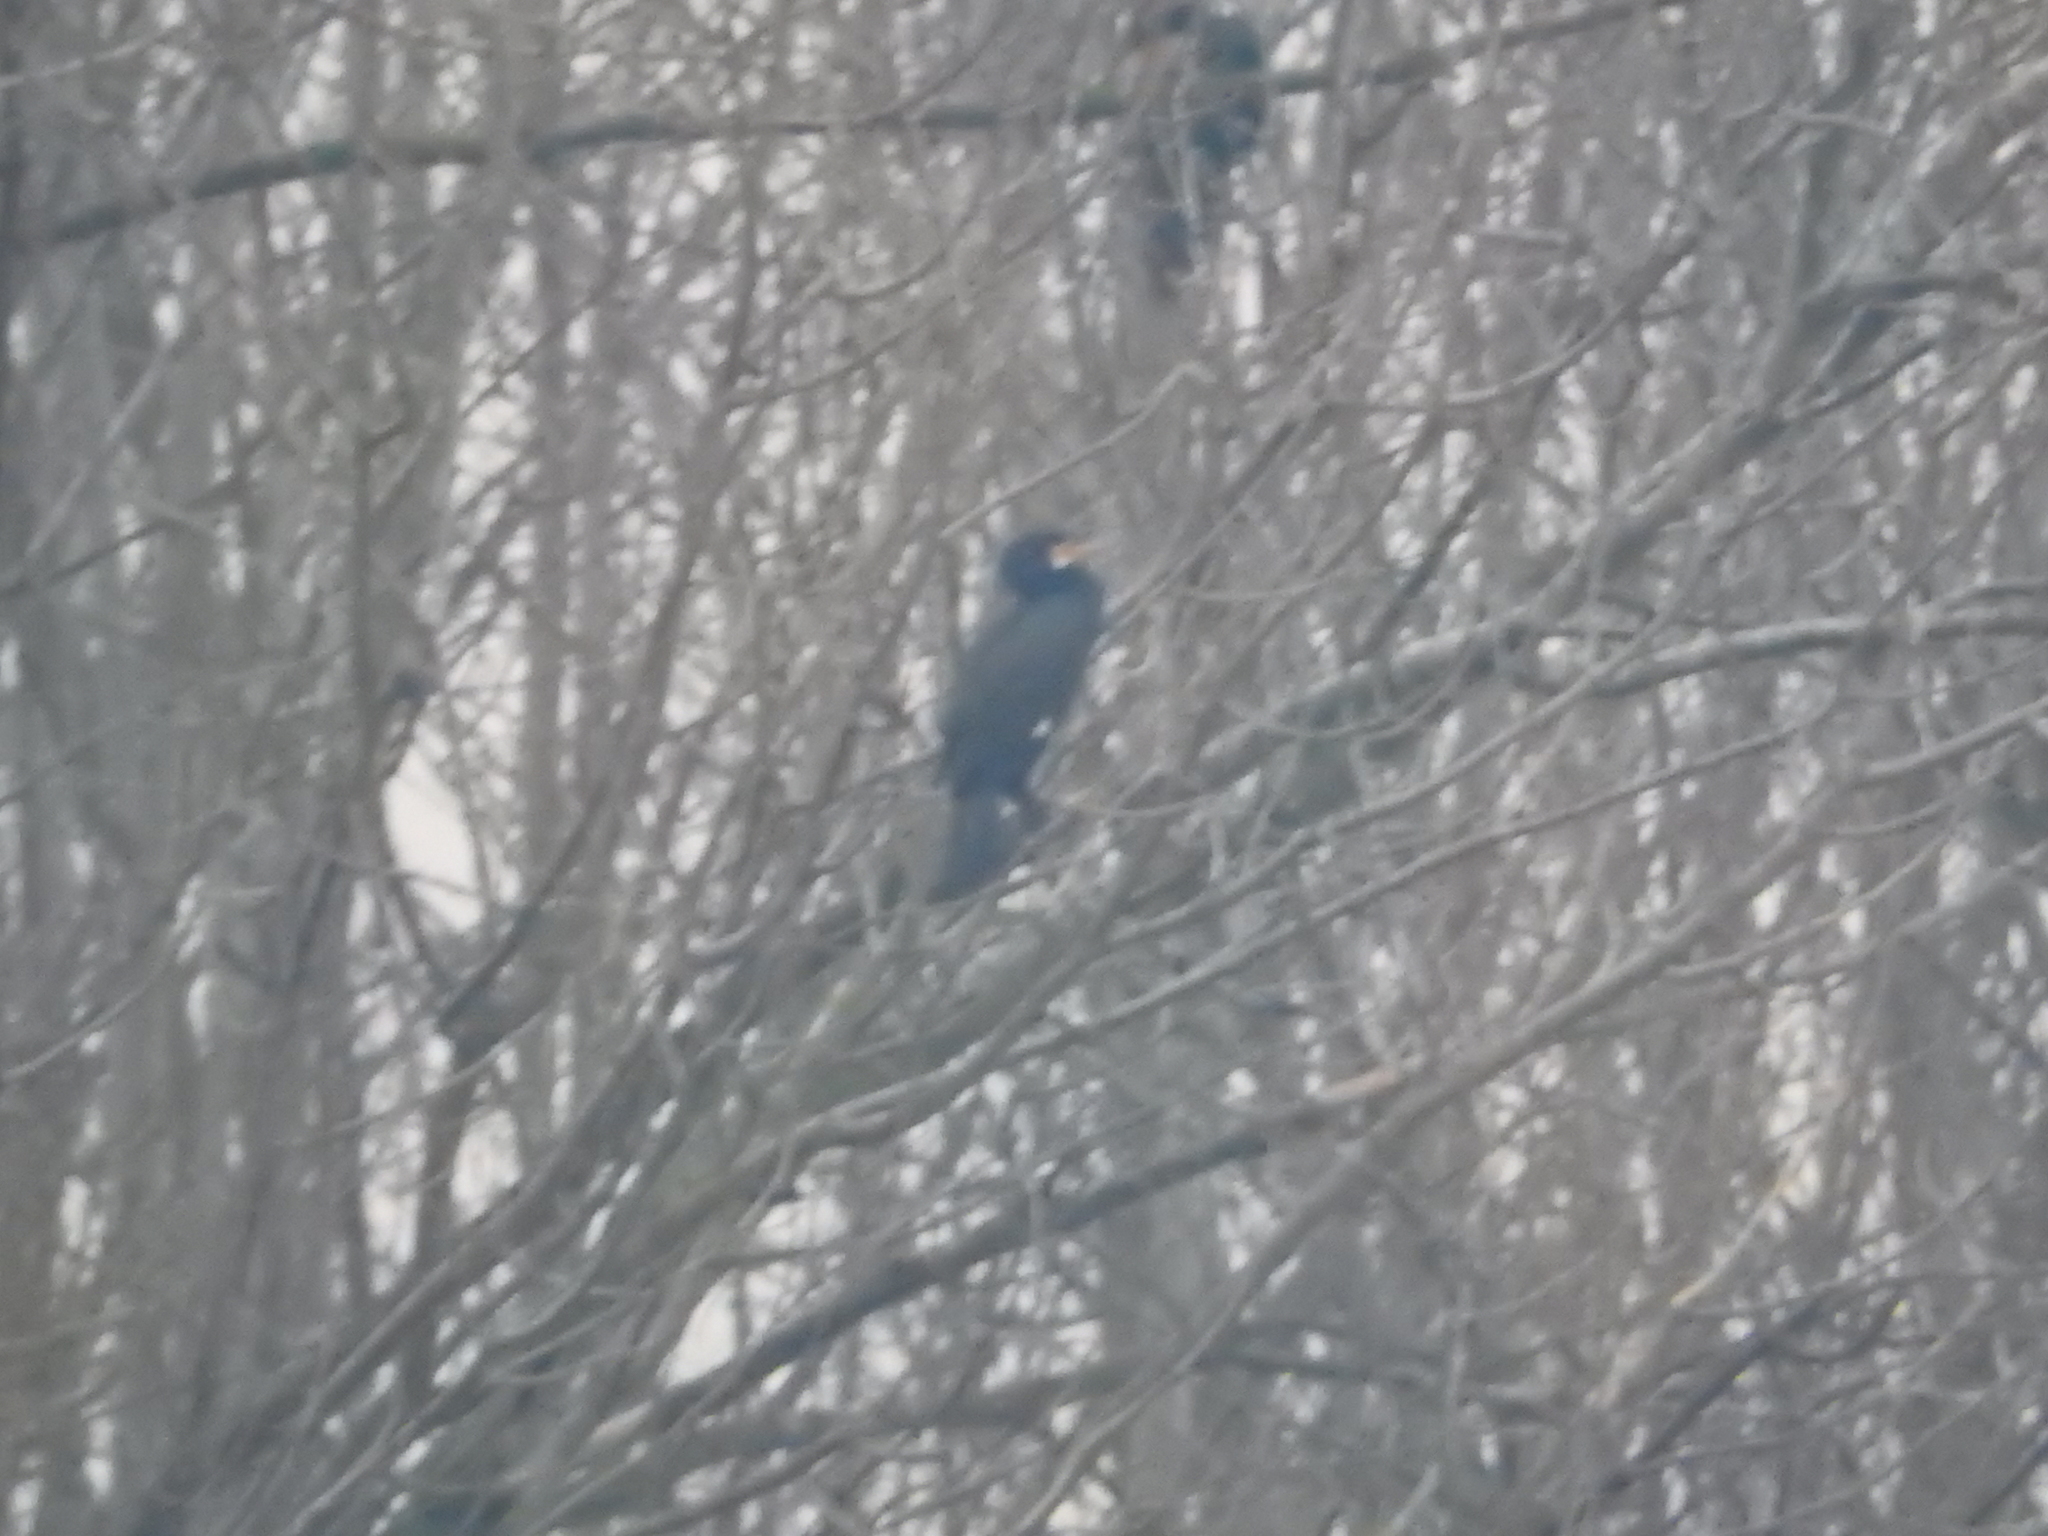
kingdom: Animalia
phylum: Chordata
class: Aves
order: Suliformes
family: Phalacrocoracidae
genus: Phalacrocorax
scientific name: Phalacrocorax carbo
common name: Great cormorant
